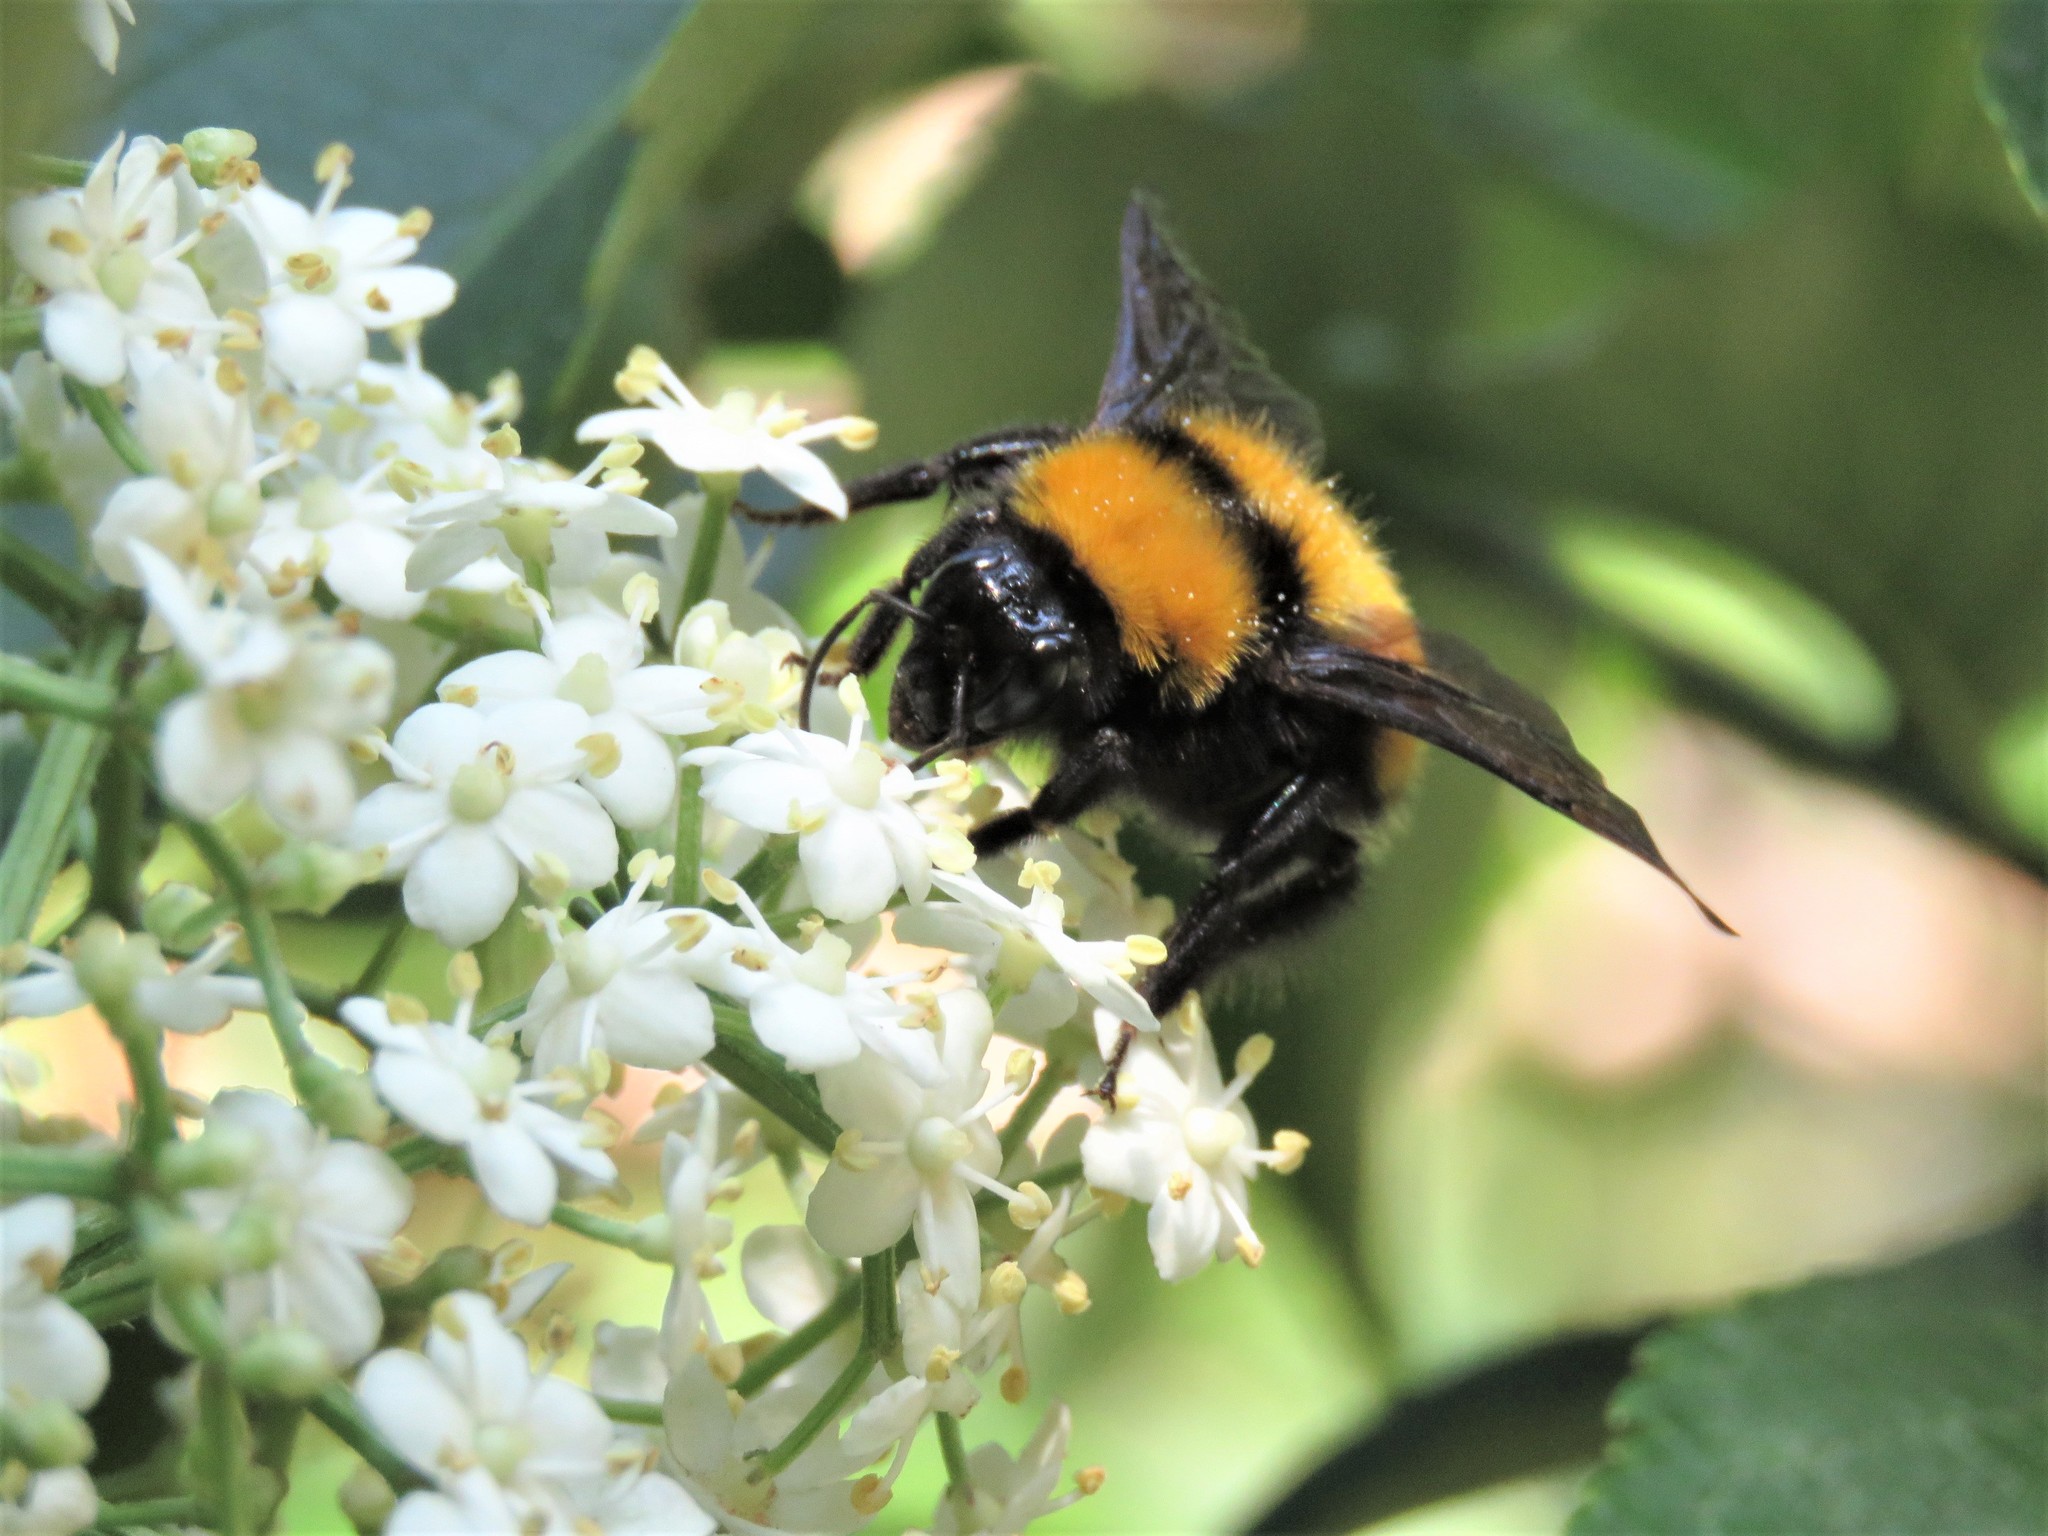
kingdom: Animalia
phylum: Arthropoda
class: Insecta
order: Hymenoptera
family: Apidae
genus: Bombus
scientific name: Bombus hortulanus
